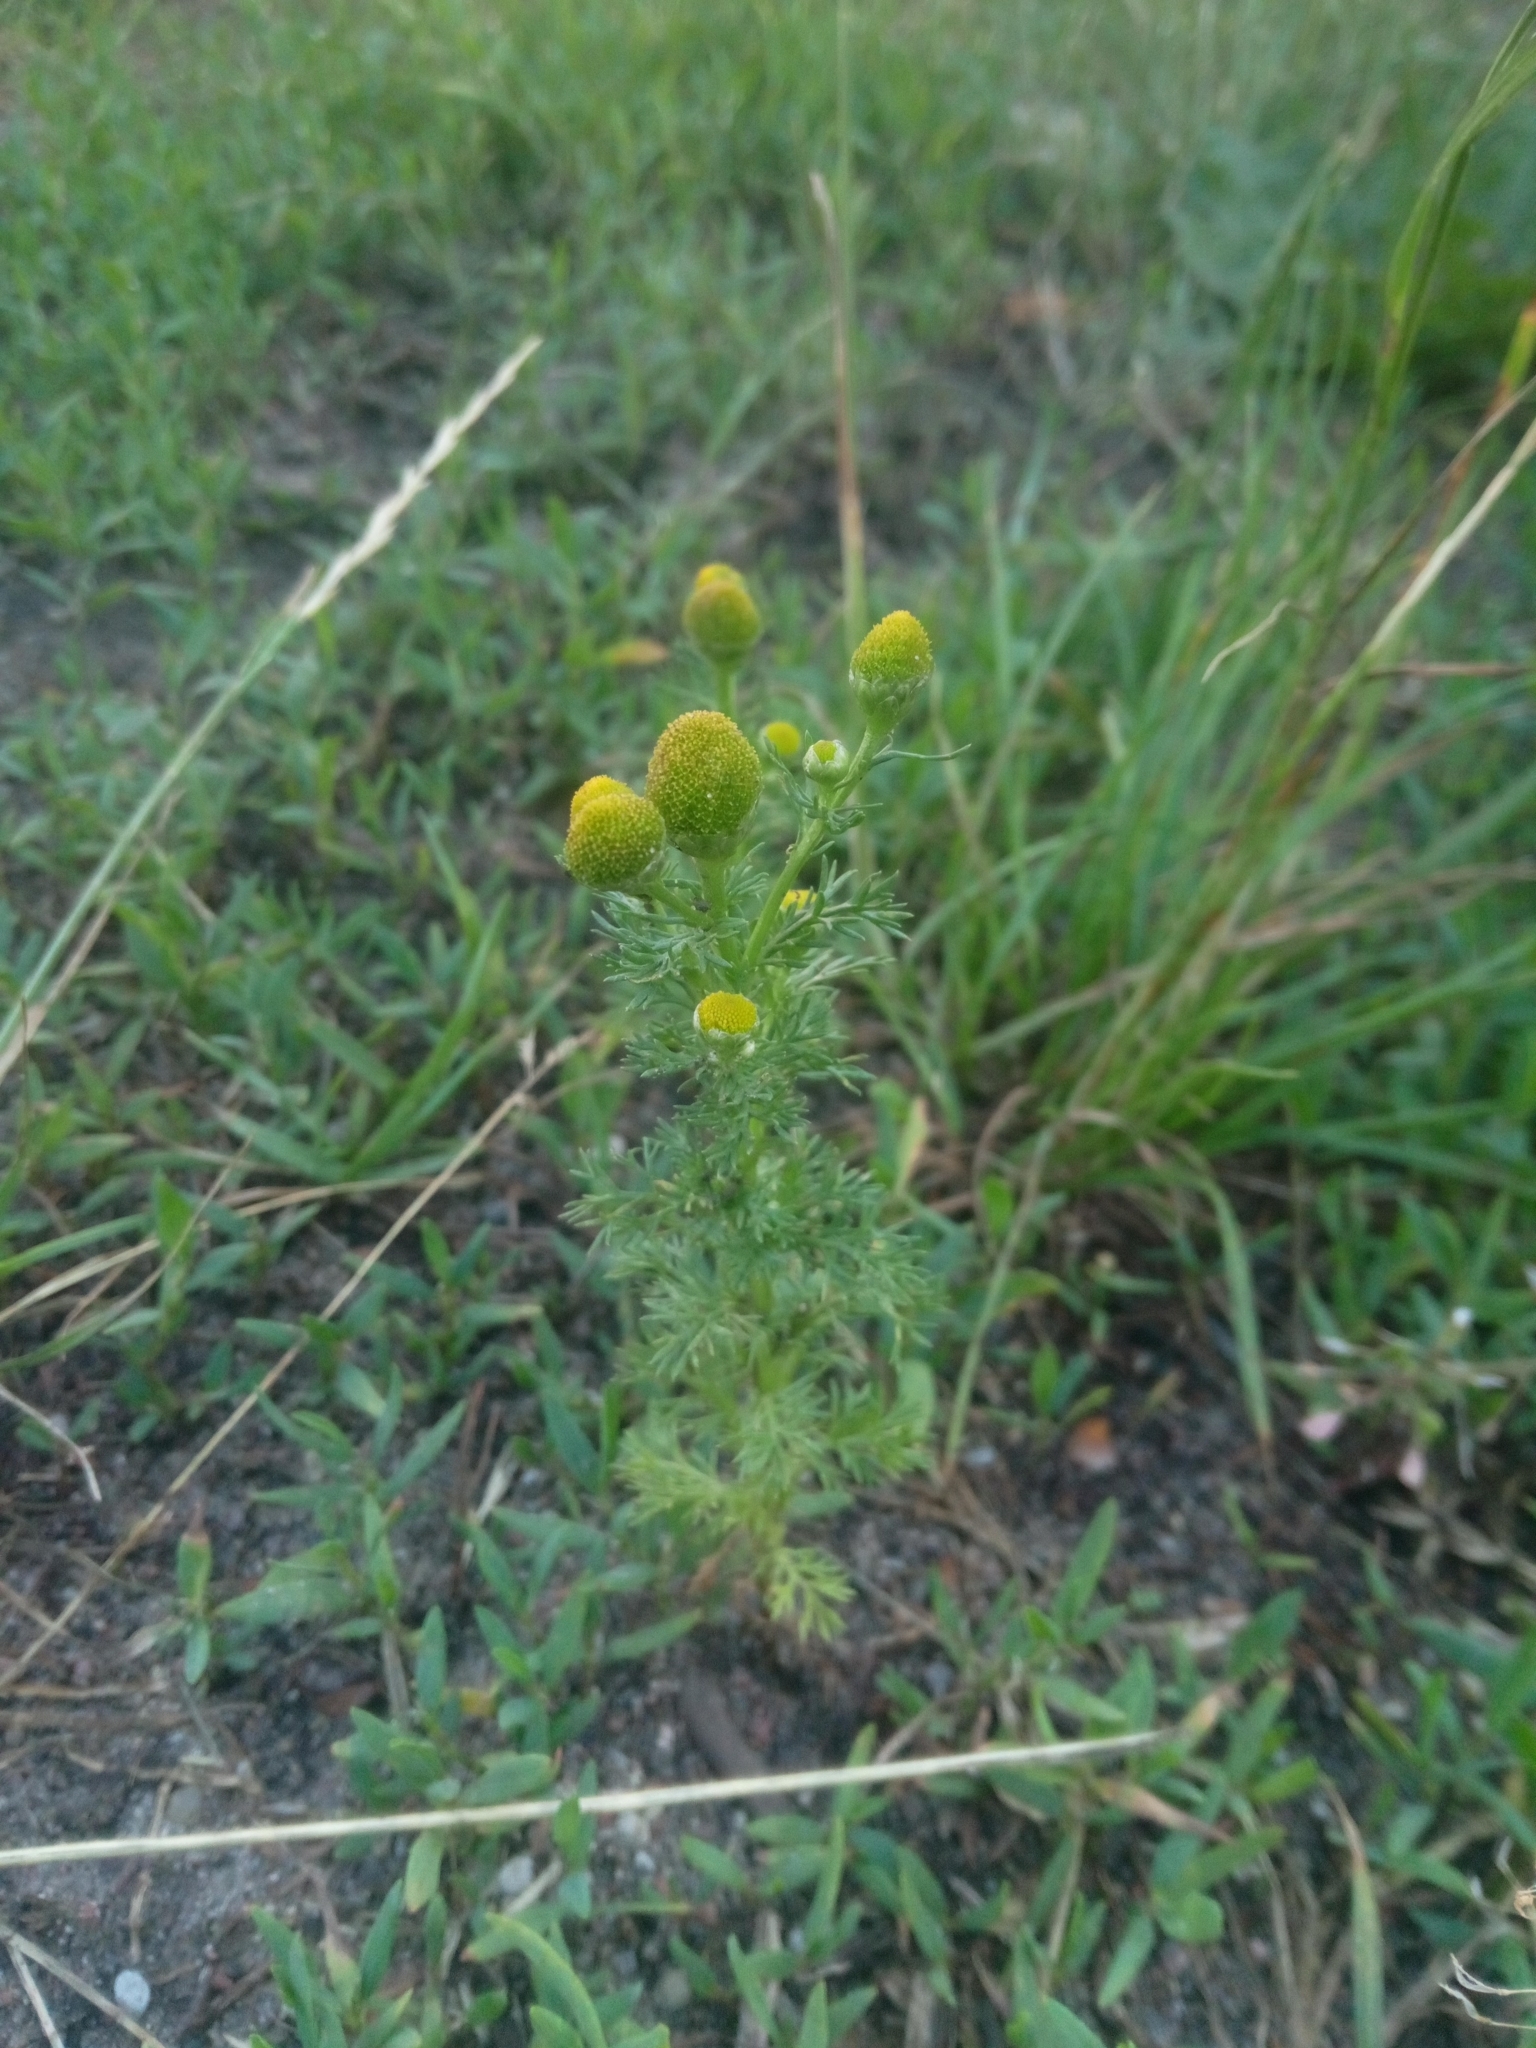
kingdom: Plantae
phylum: Tracheophyta
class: Magnoliopsida
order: Asterales
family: Asteraceae
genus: Matricaria
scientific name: Matricaria discoidea
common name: Disc mayweed
